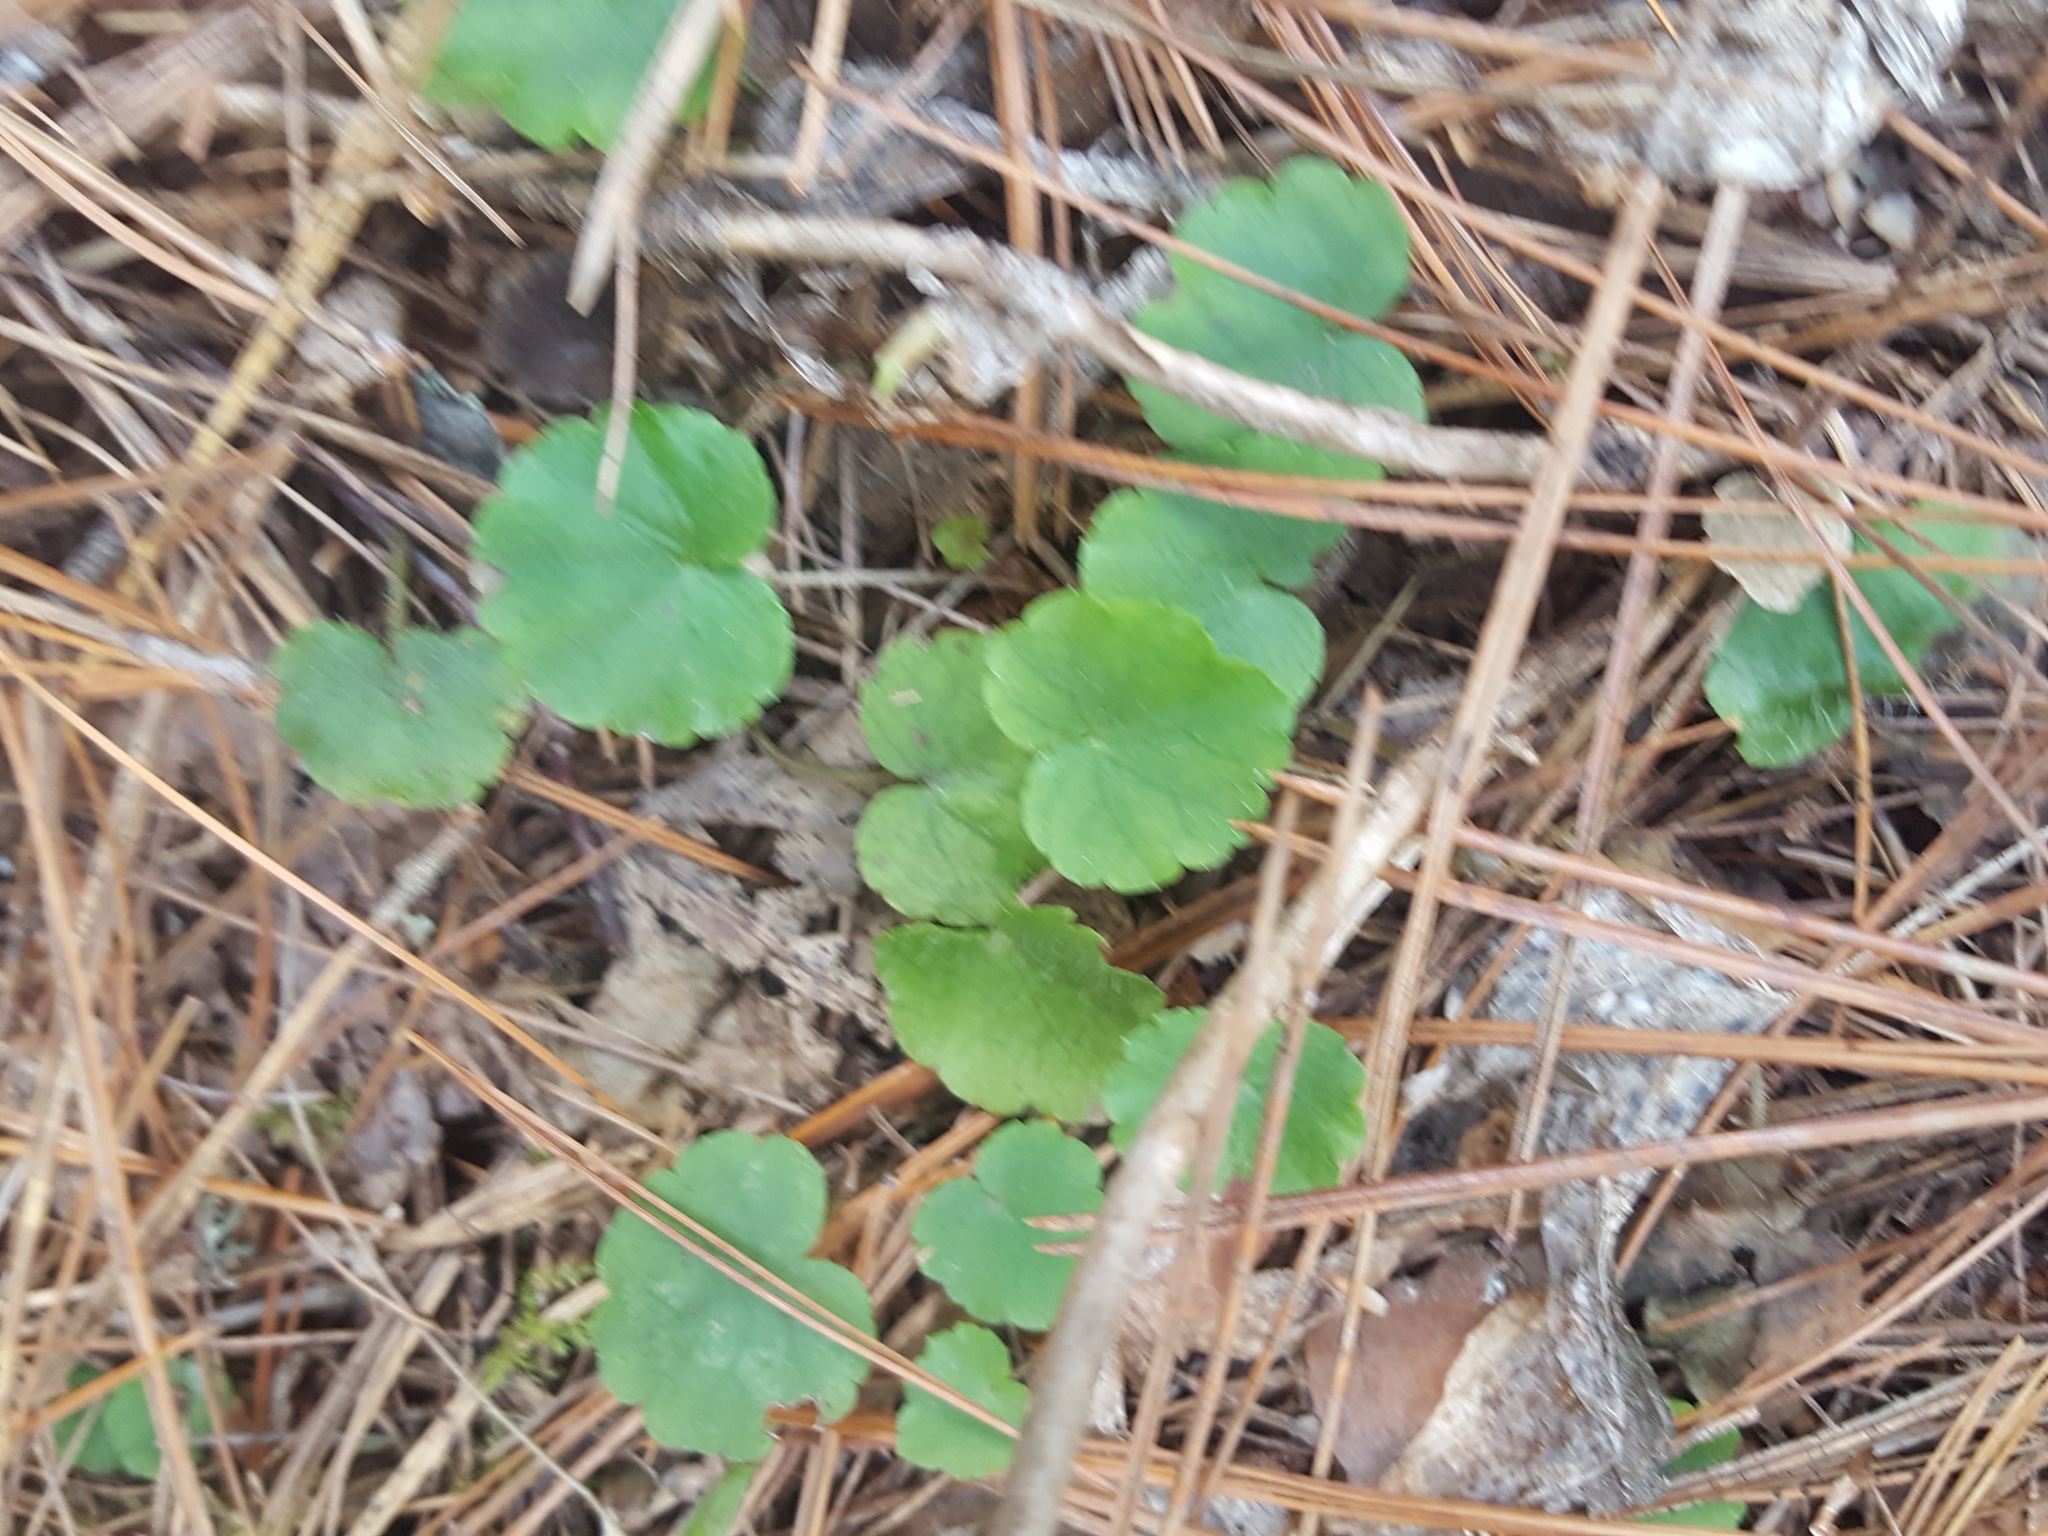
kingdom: Plantae
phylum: Tracheophyta
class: Magnoliopsida
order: Saxifragales
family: Saxifragaceae
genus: Mitella
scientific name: Mitella nuda
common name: Bare-stemmed bishop's-cap
